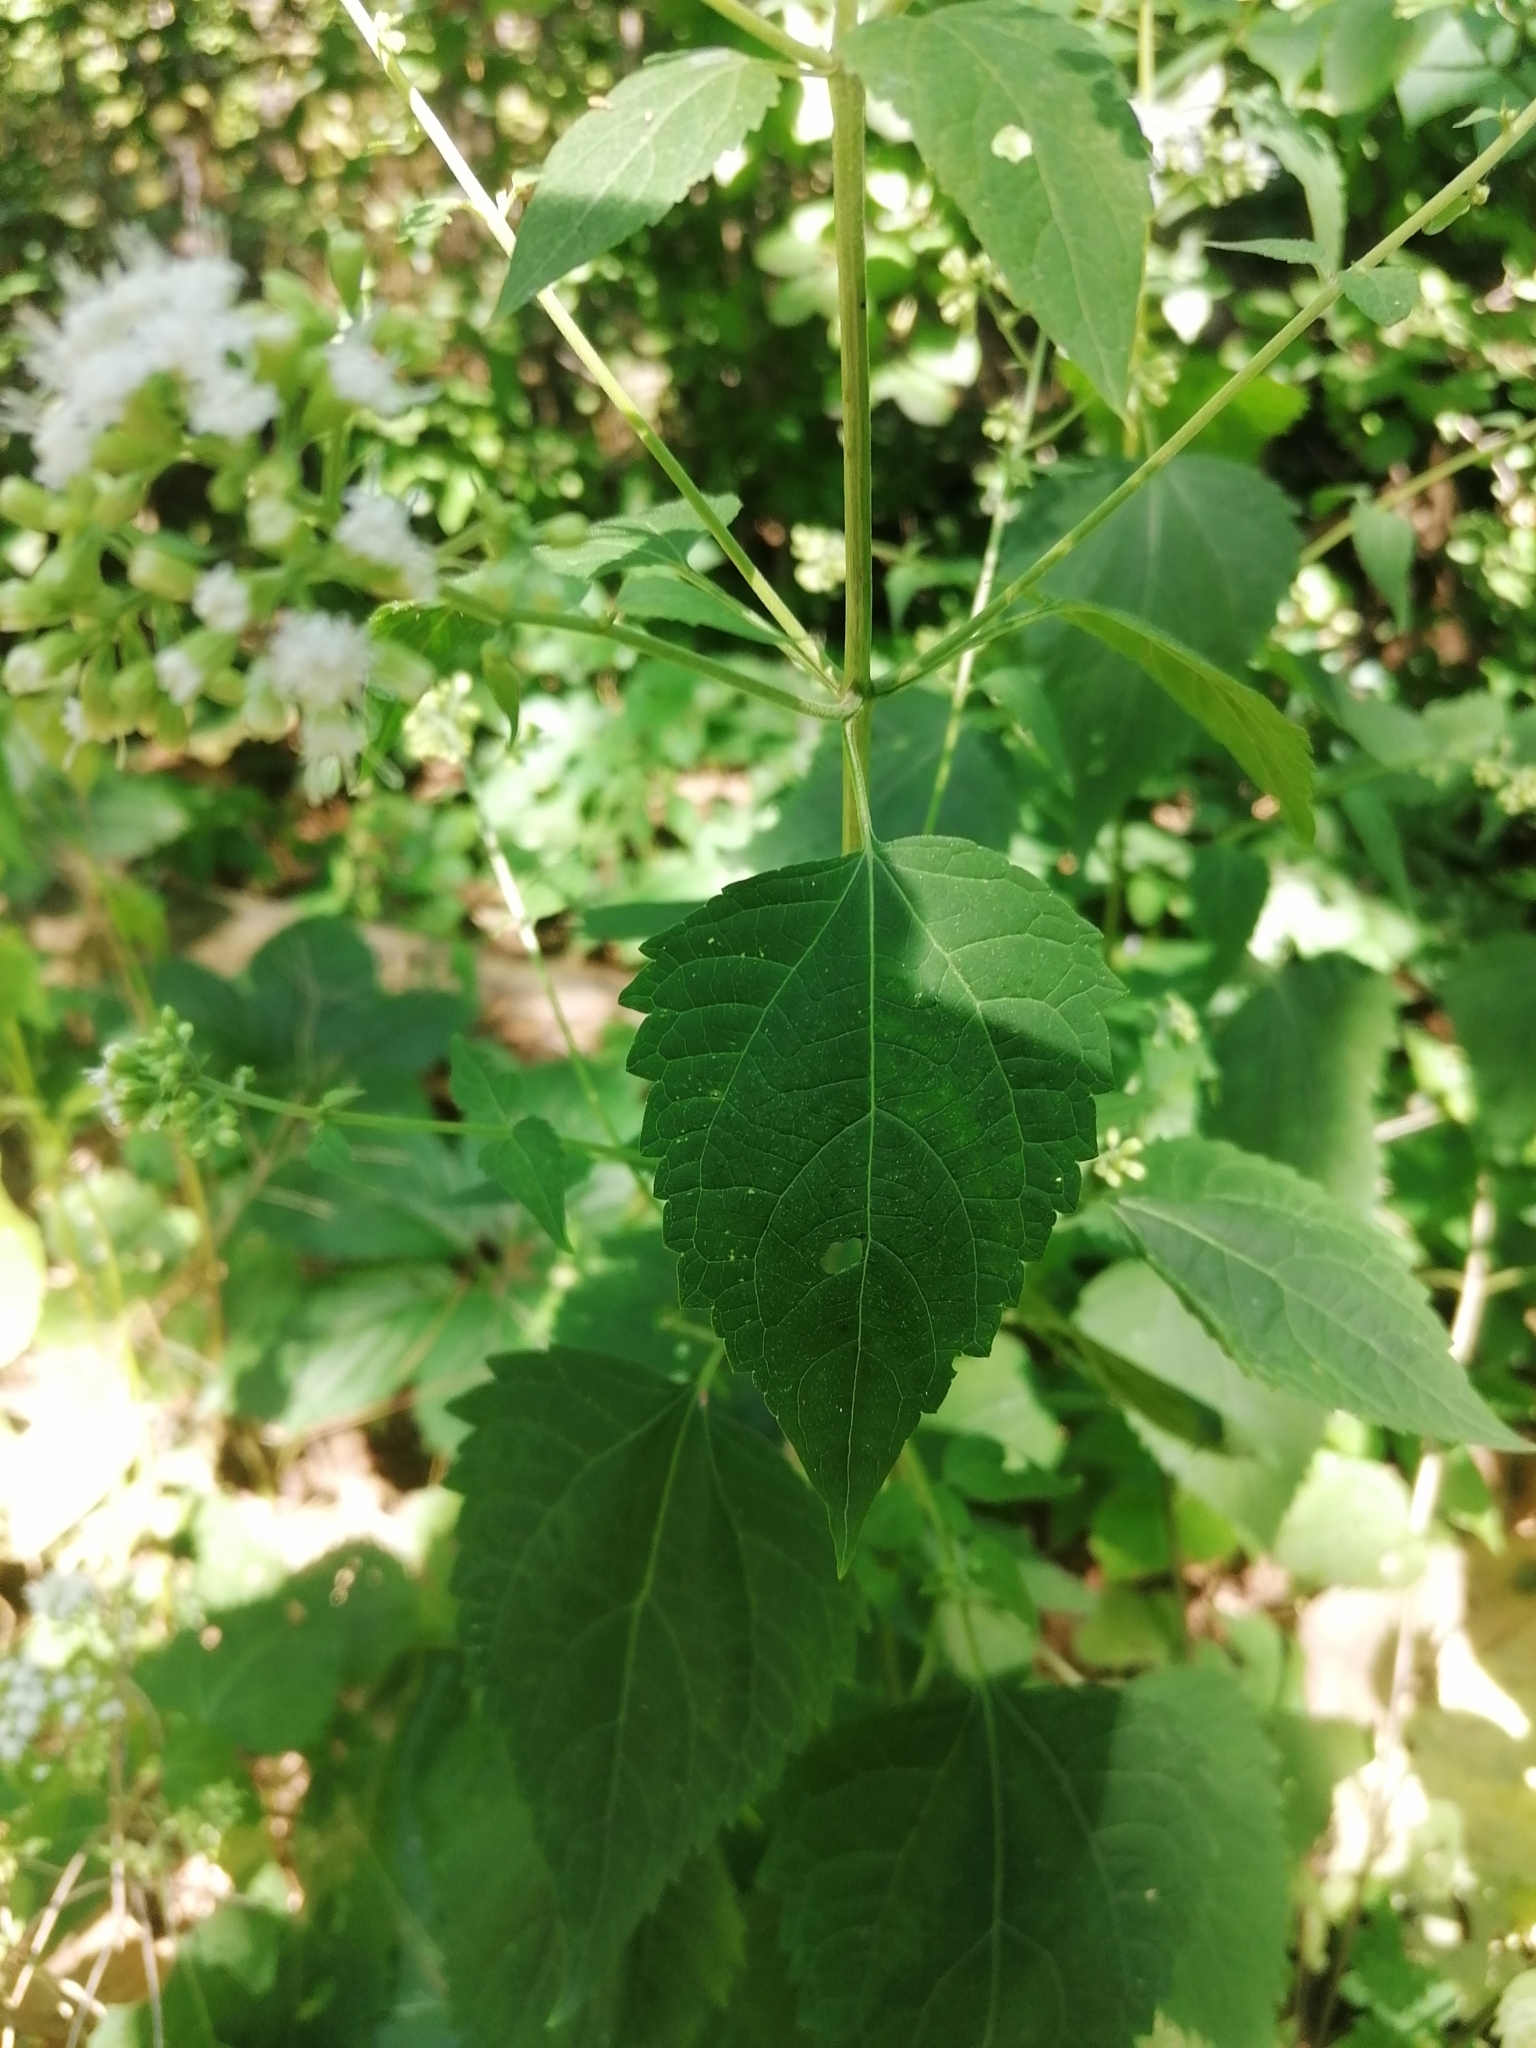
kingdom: Plantae
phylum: Tracheophyta
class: Magnoliopsida
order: Asterales
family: Asteraceae
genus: Ageratina
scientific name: Ageratina altissima
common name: White snakeroot
